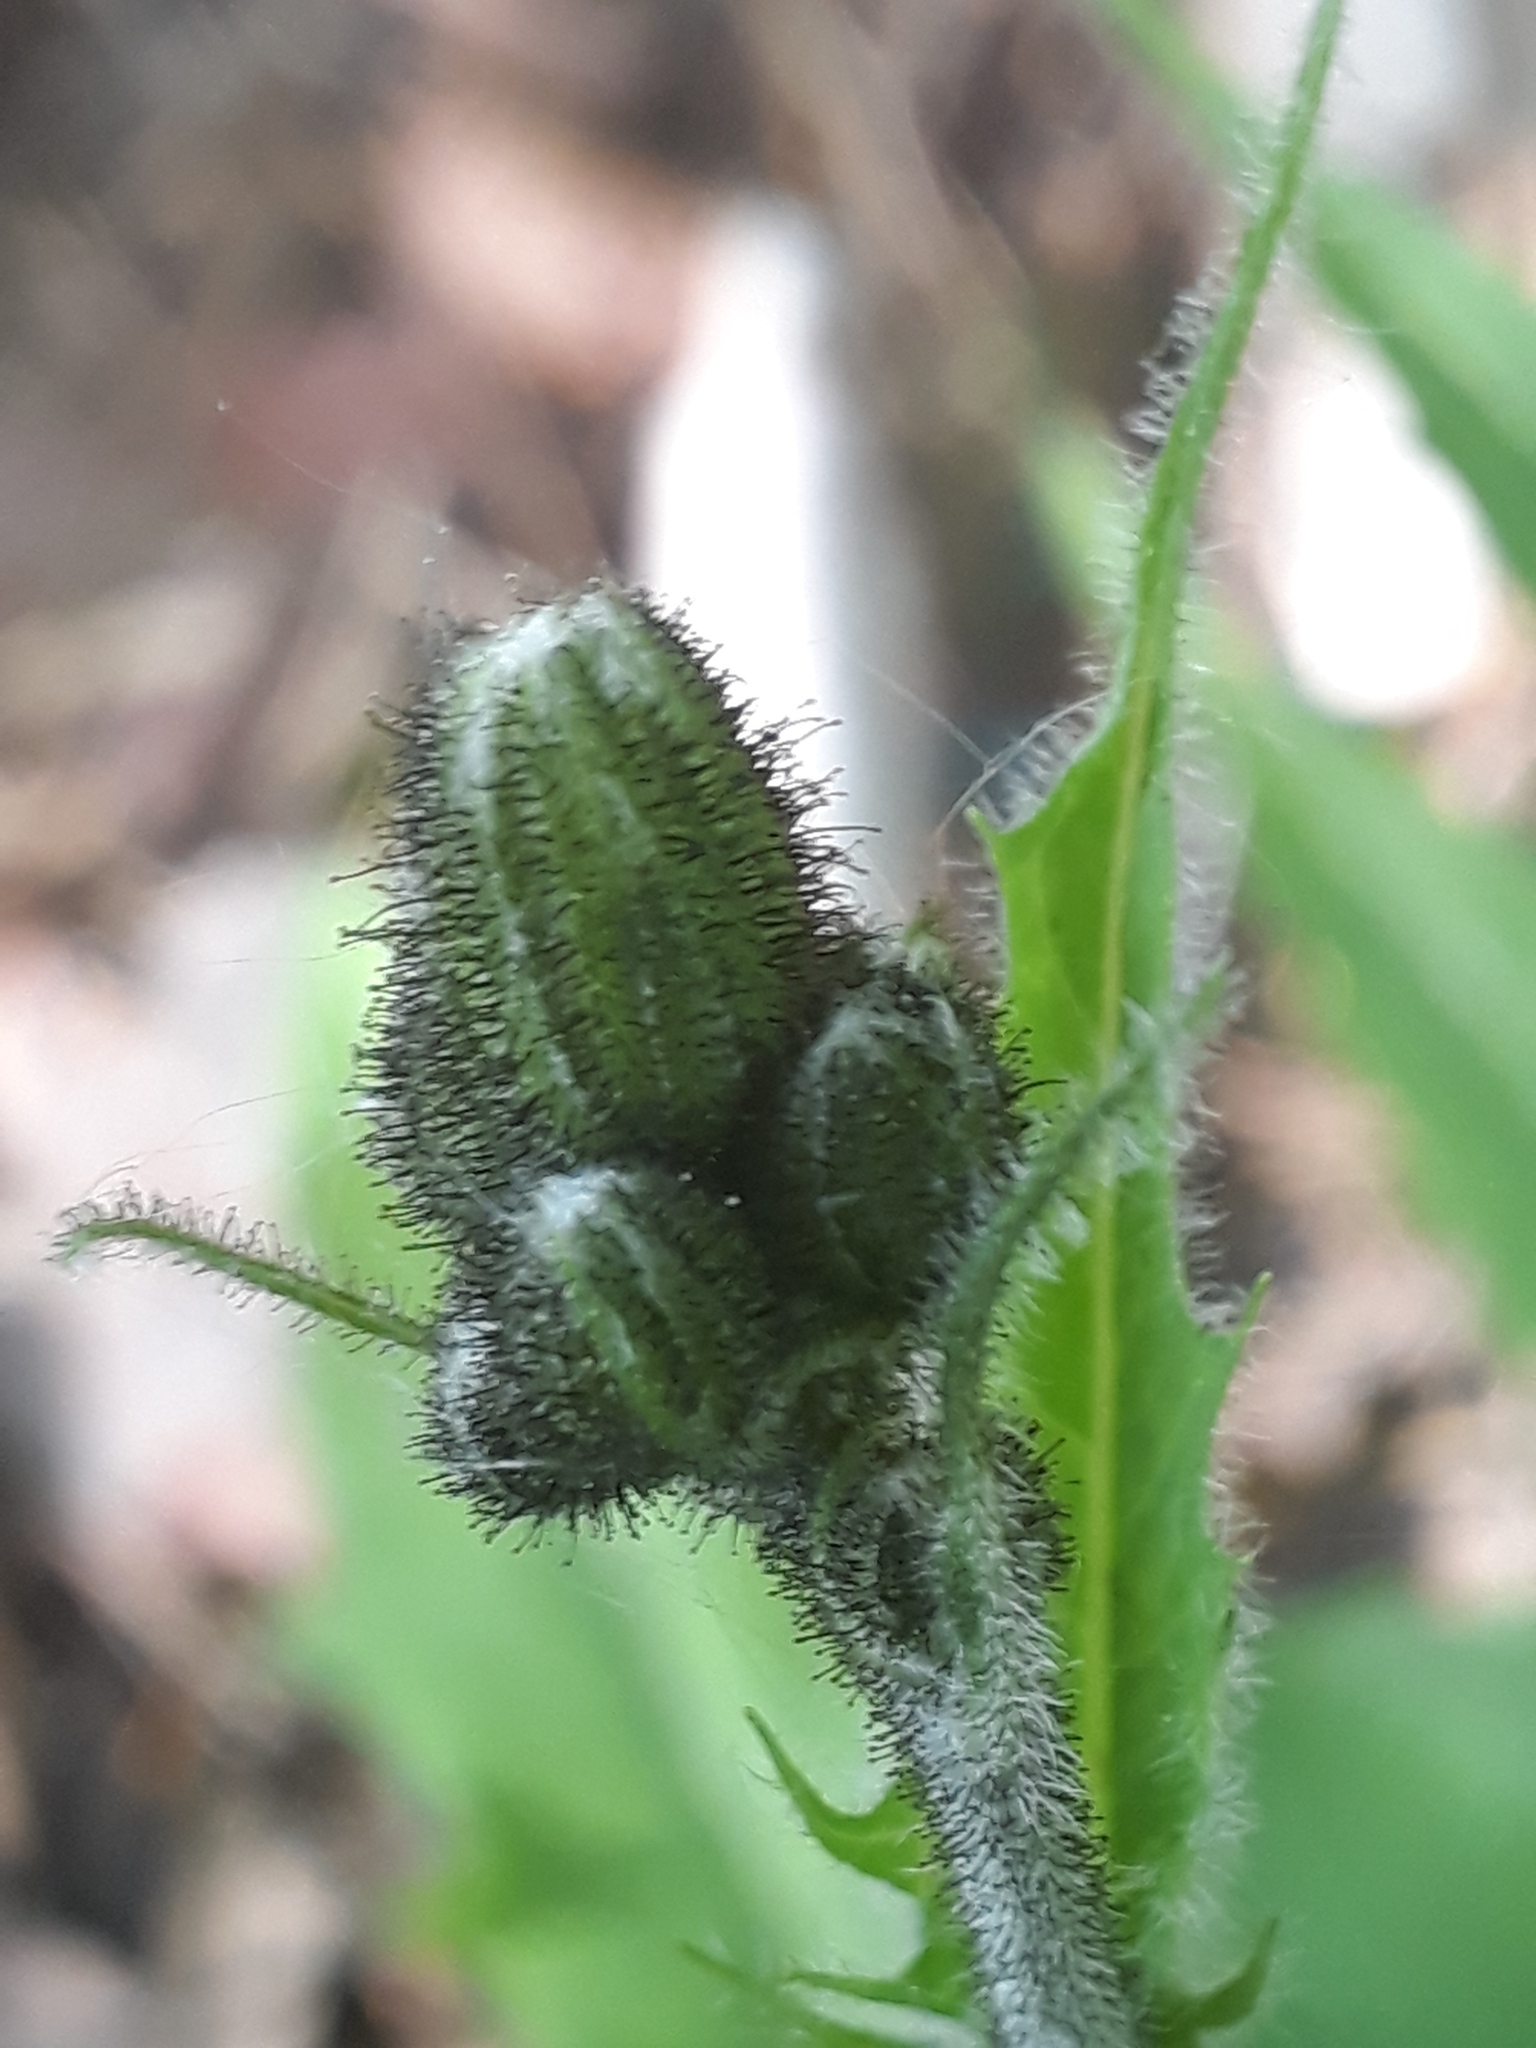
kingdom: Plantae
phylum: Tracheophyta
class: Magnoliopsida
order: Asterales
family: Asteraceae
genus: Hieracium
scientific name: Hieracium murorum
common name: Wall hawkweed
